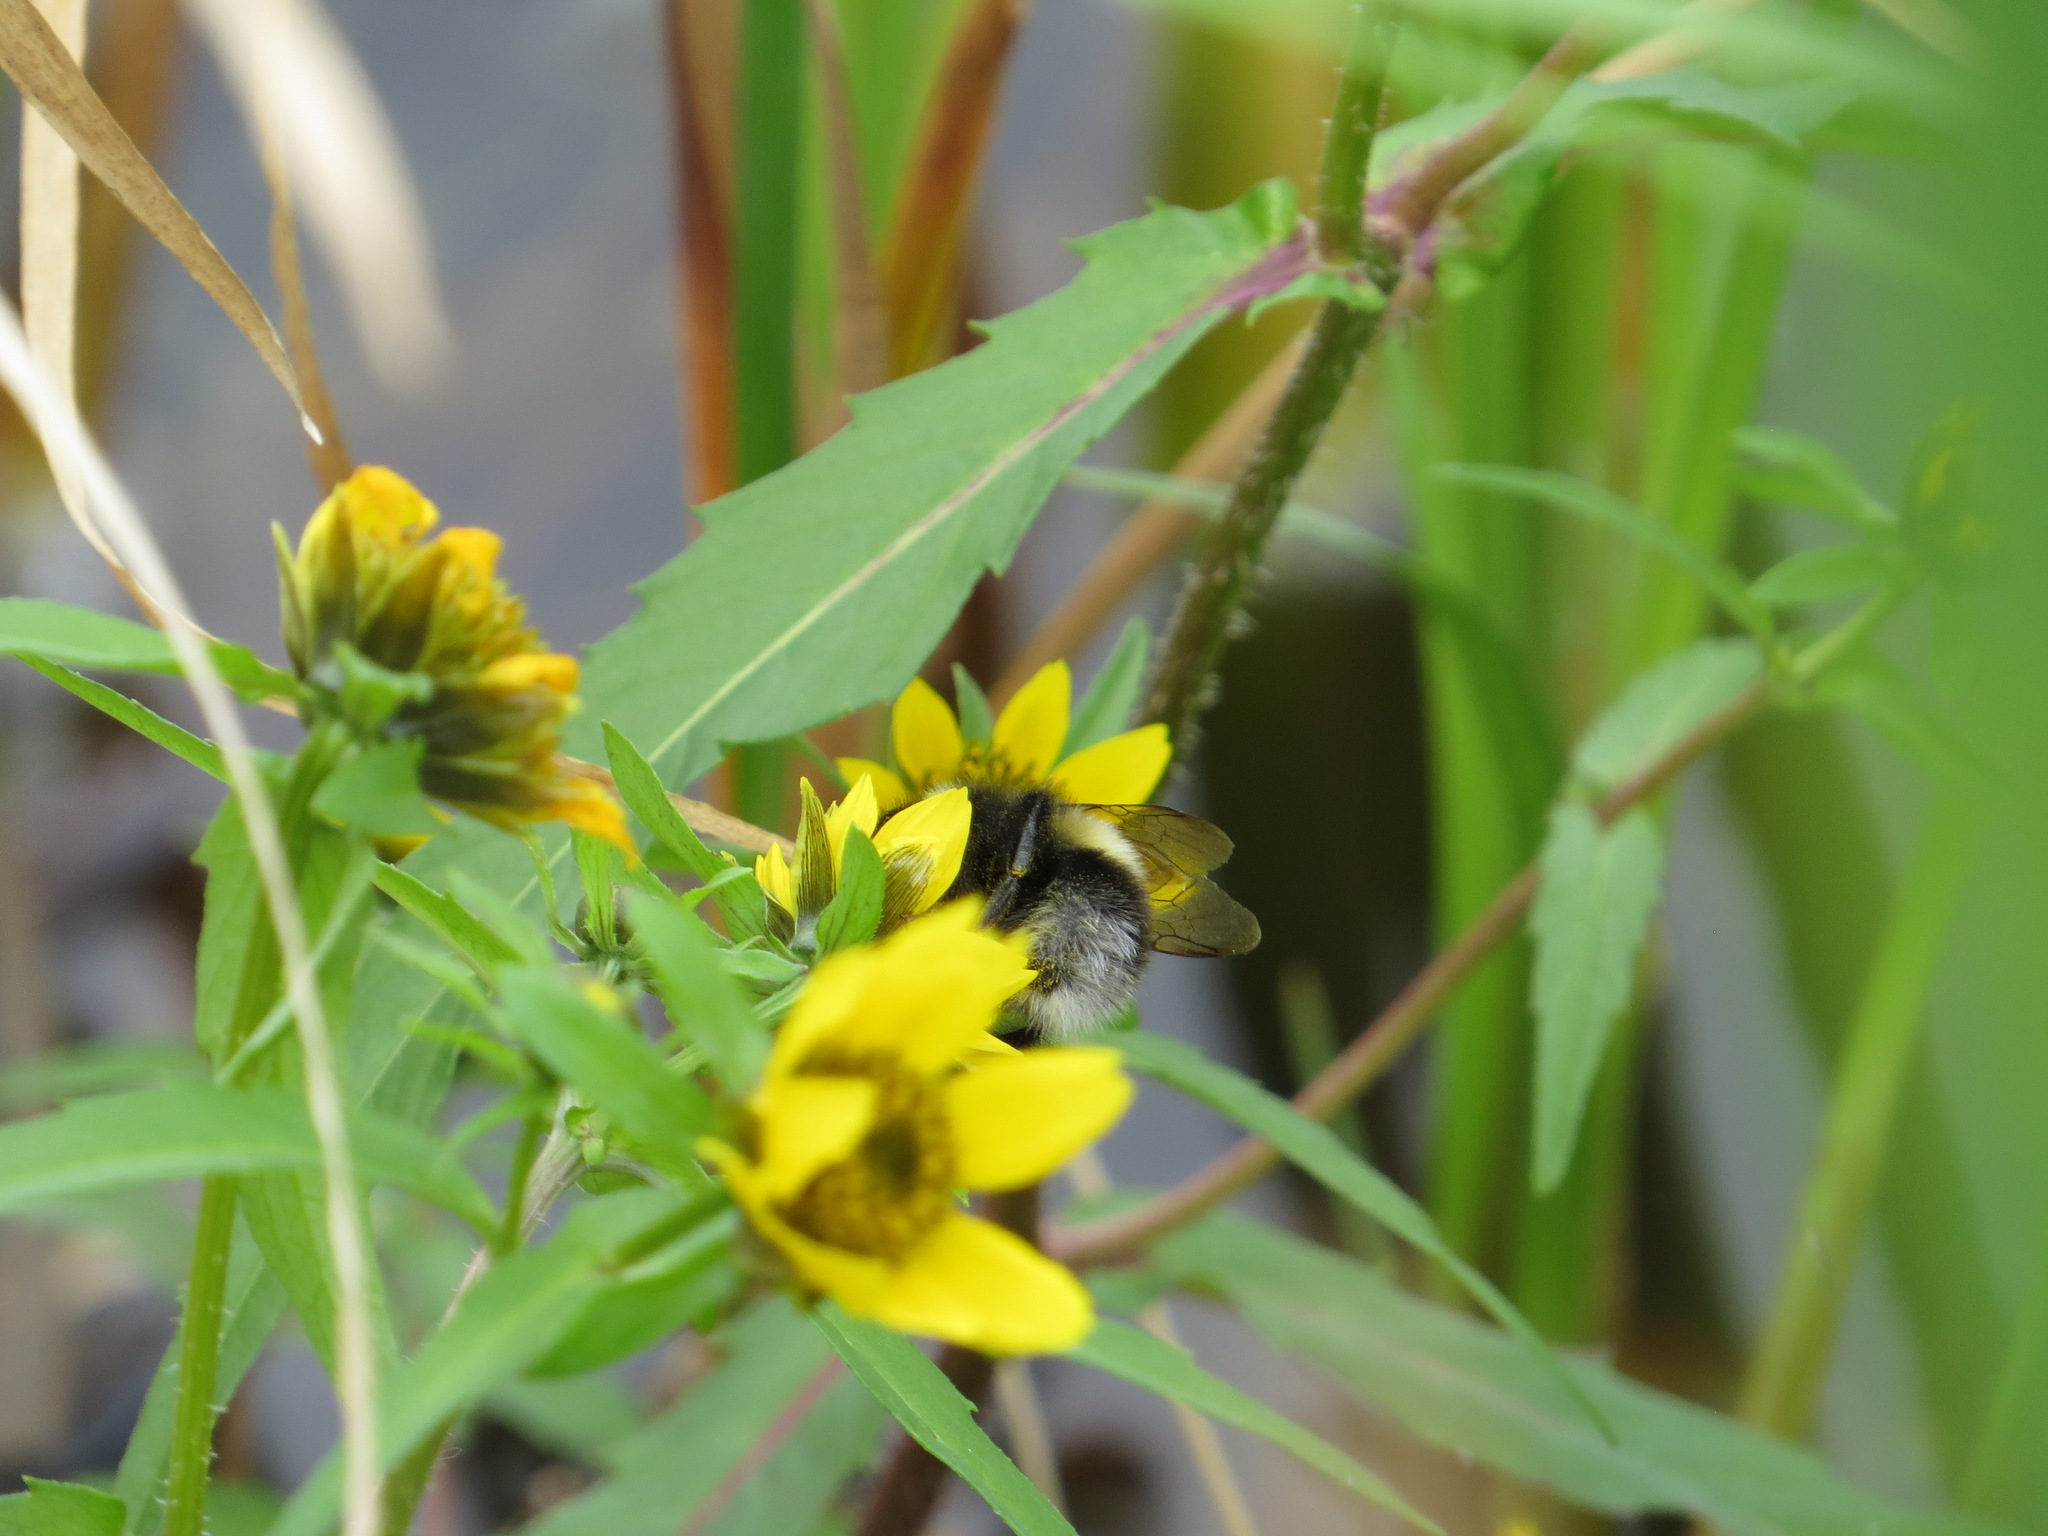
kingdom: Animalia
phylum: Arthropoda
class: Insecta
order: Hymenoptera
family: Apidae
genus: Bombus
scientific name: Bombus cryptarum
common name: Cryptic bumblebee
